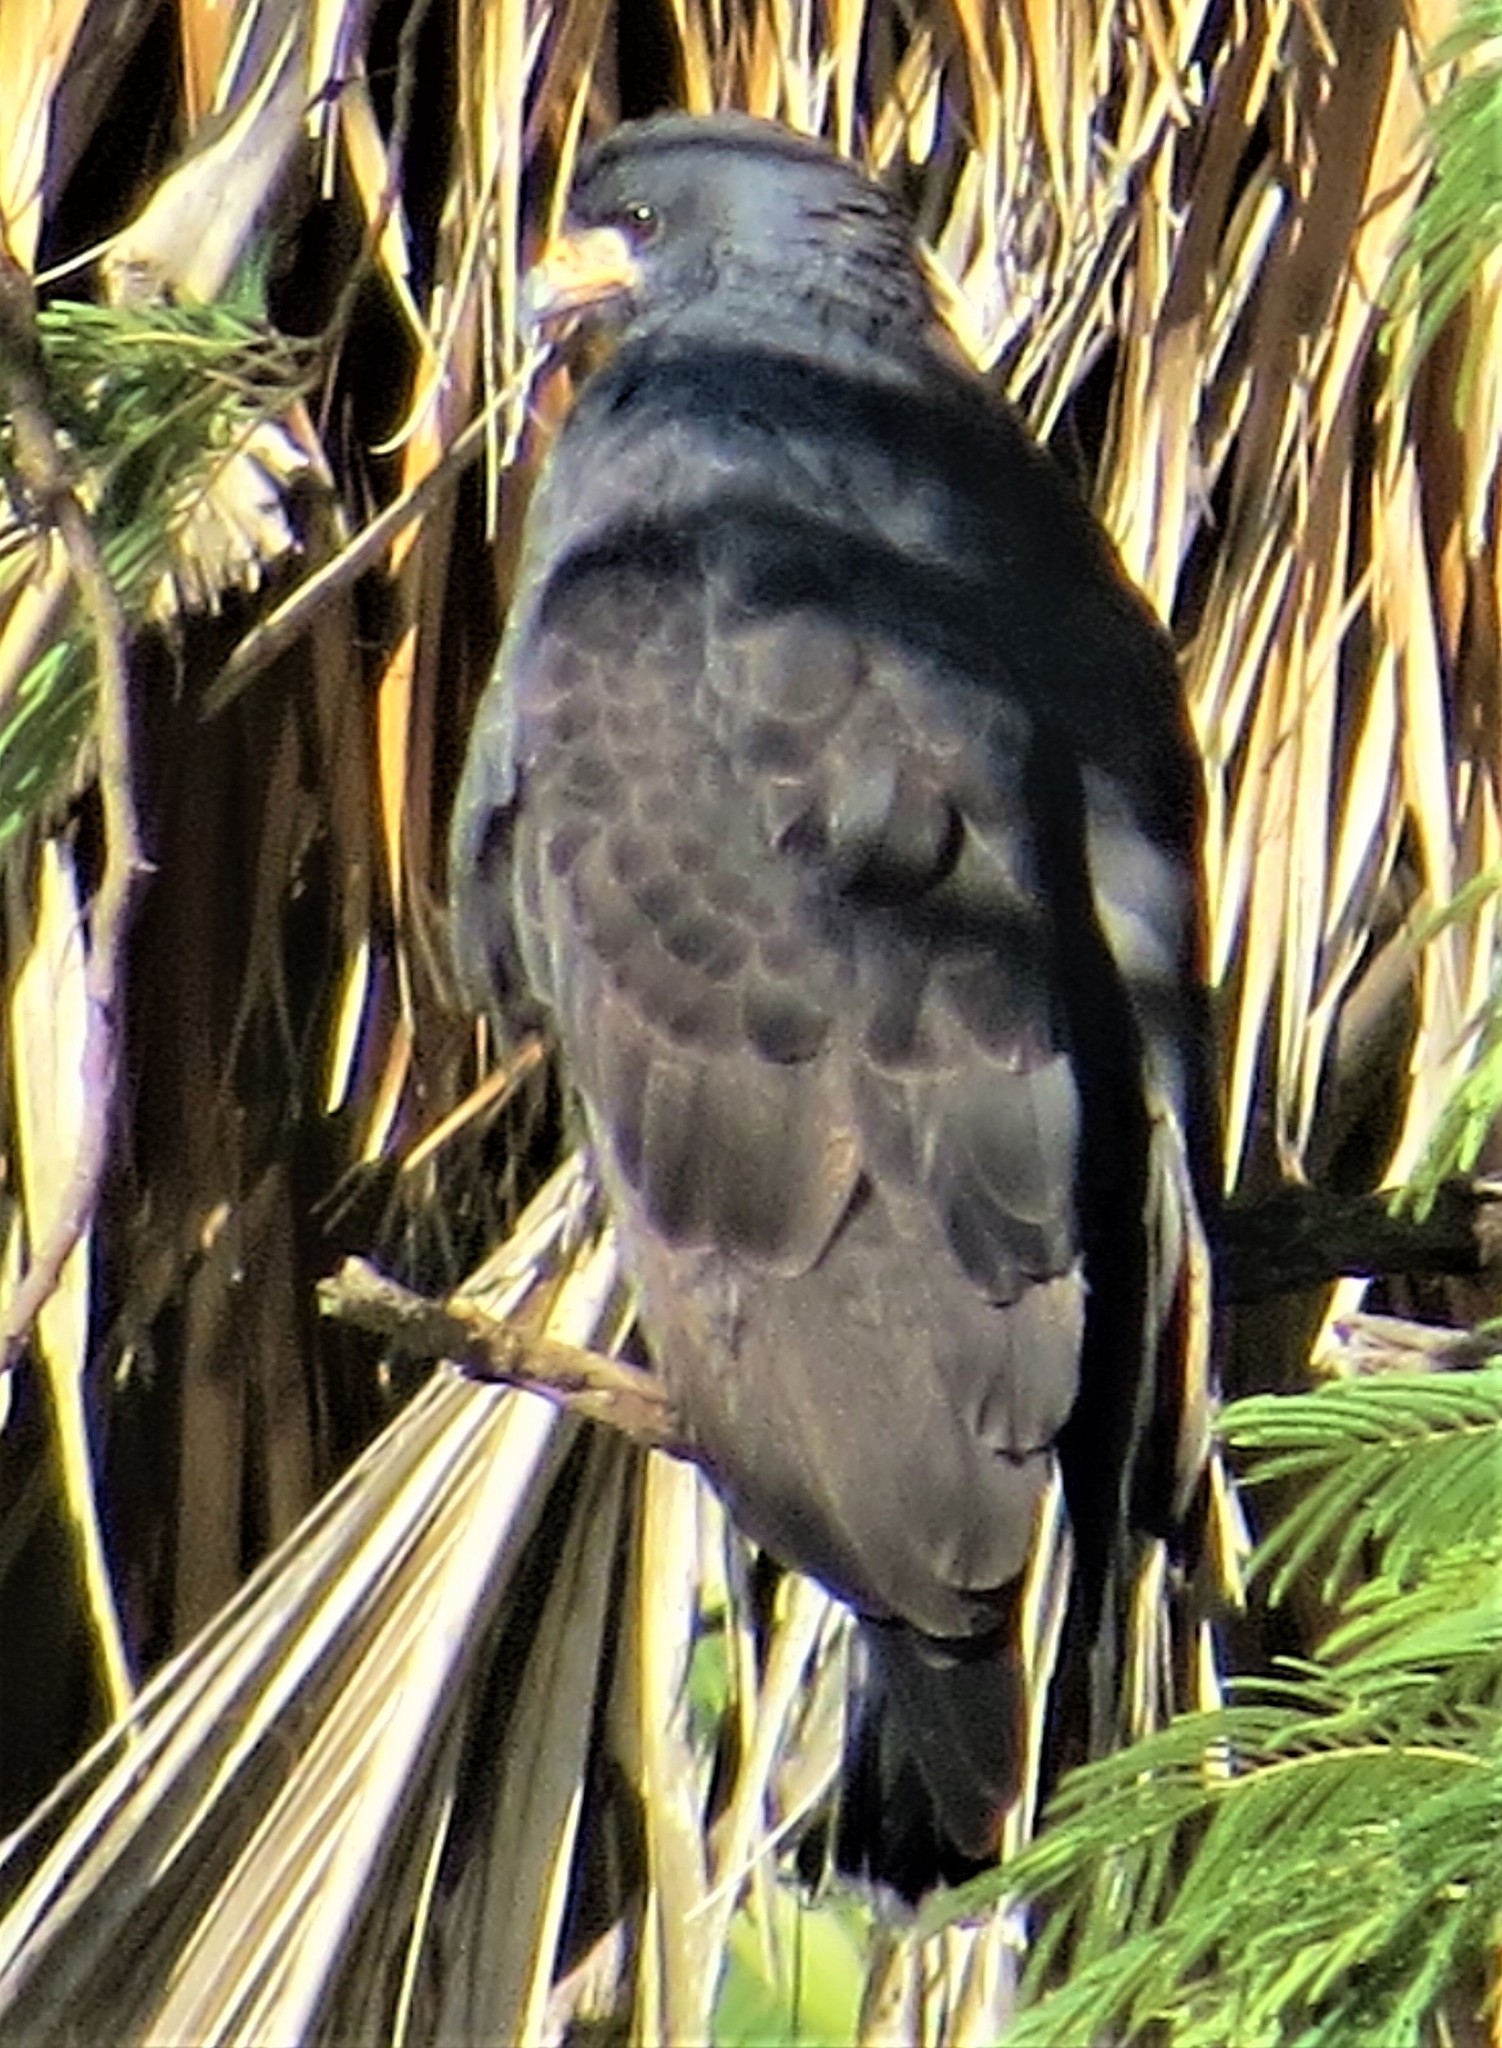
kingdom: Animalia
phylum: Chordata
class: Aves
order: Accipitriformes
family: Accipitridae
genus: Buteogallus
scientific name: Buteogallus anthracinus
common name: Common black hawk
